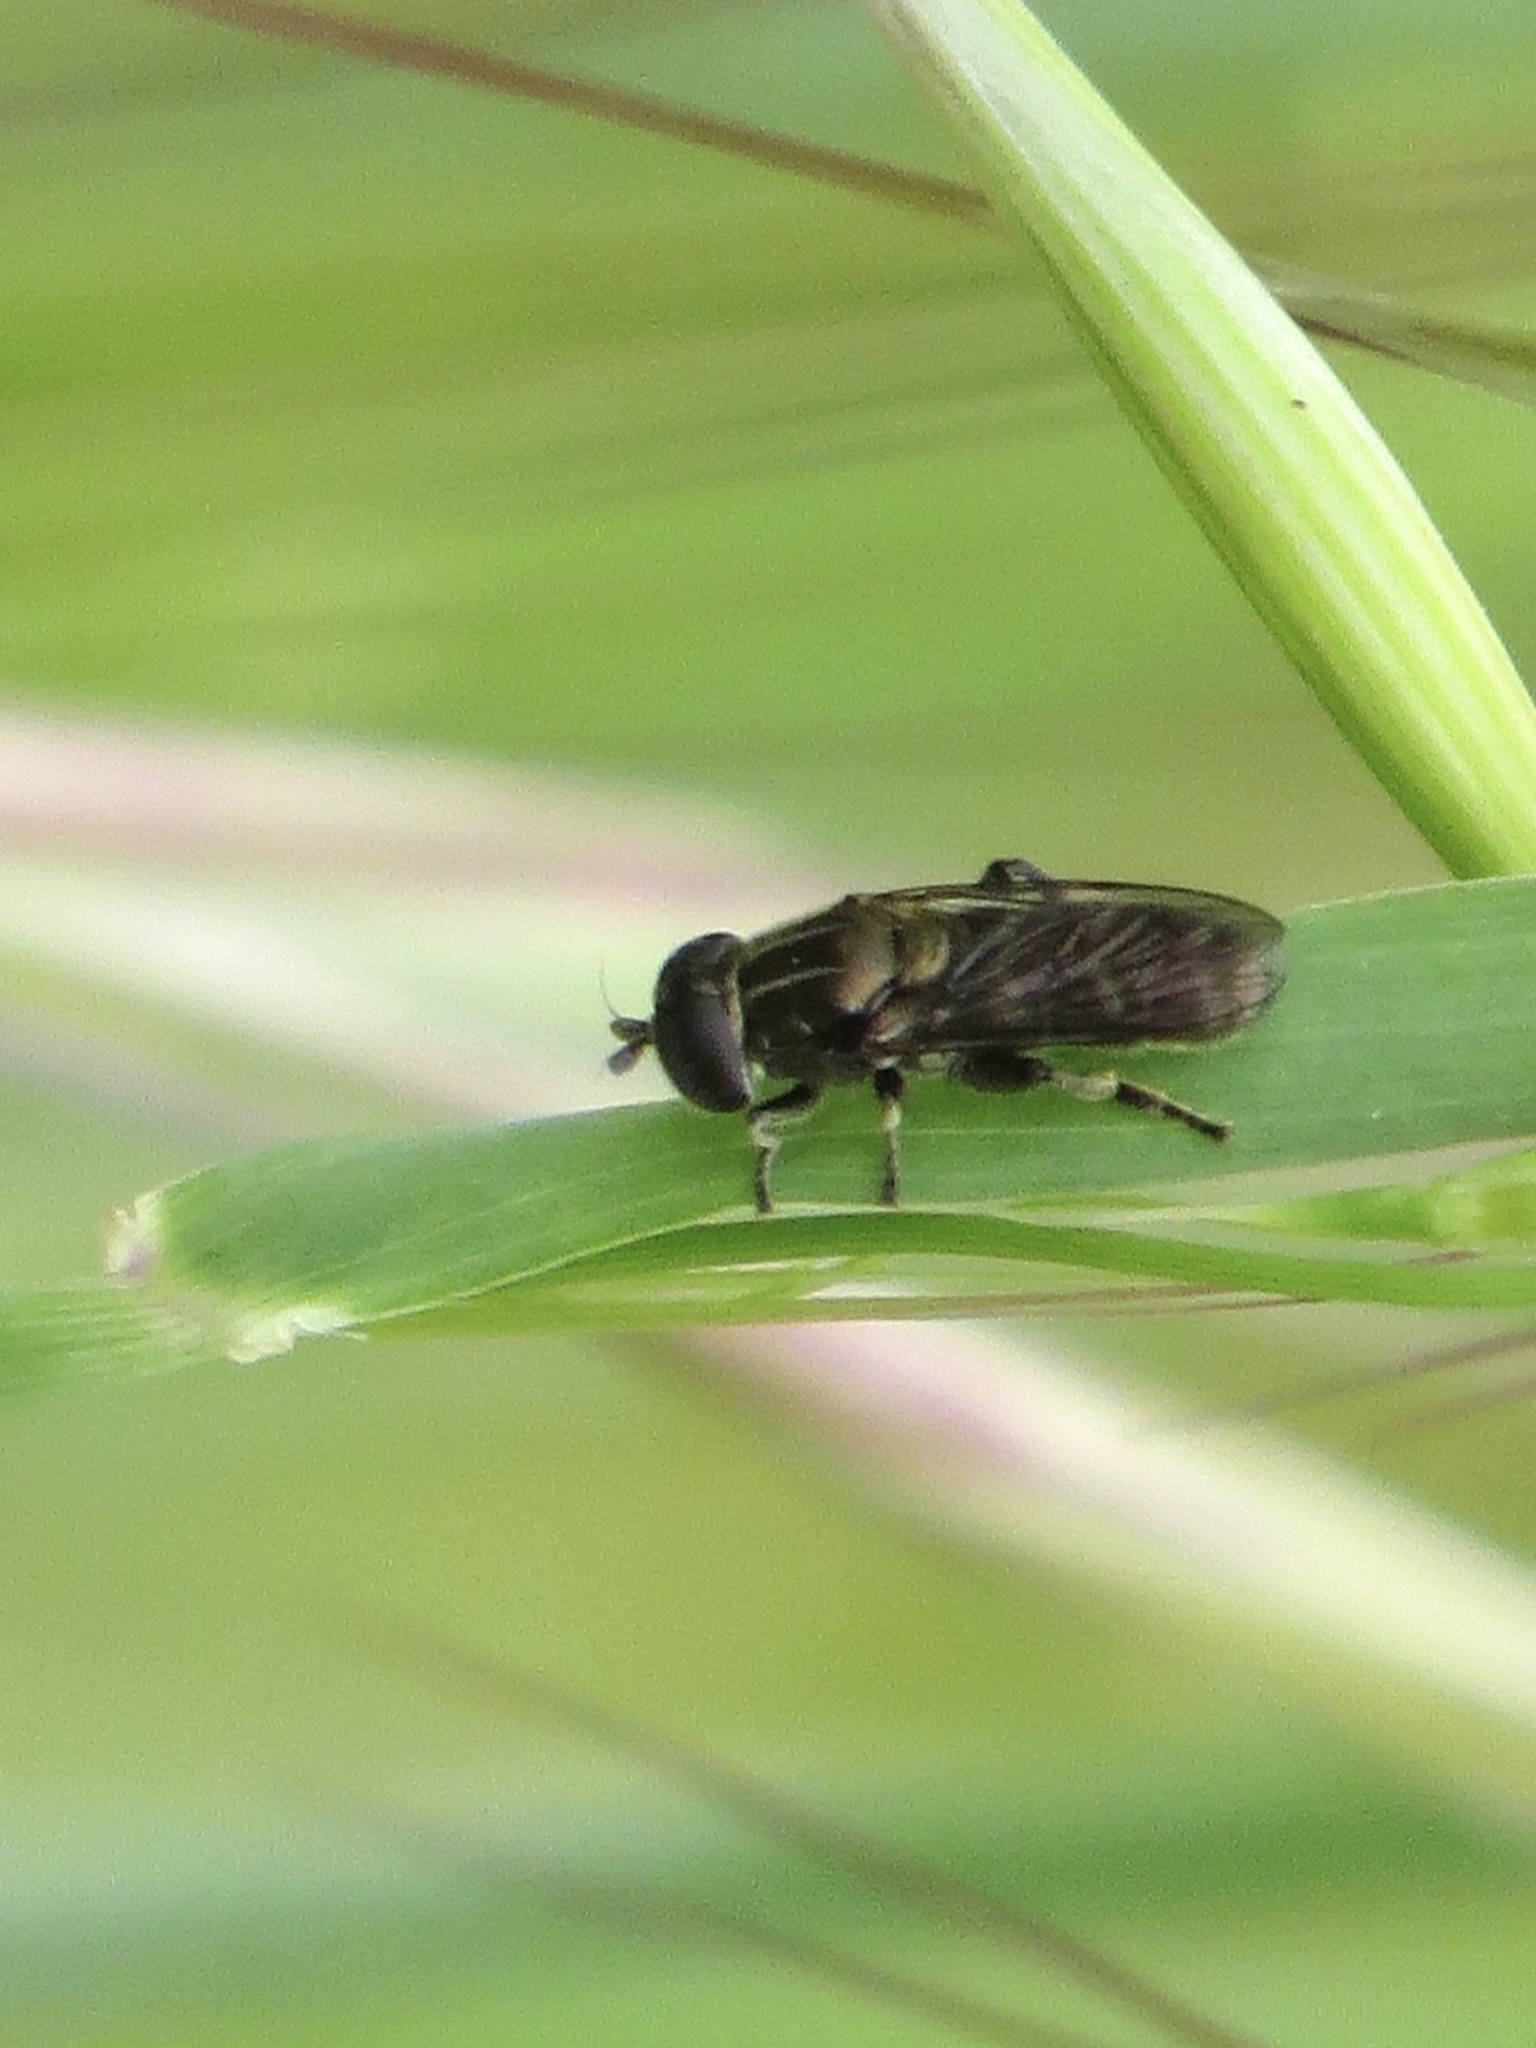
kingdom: Animalia
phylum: Arthropoda
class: Insecta
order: Diptera
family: Syrphidae
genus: Eumerus
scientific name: Eumerus
